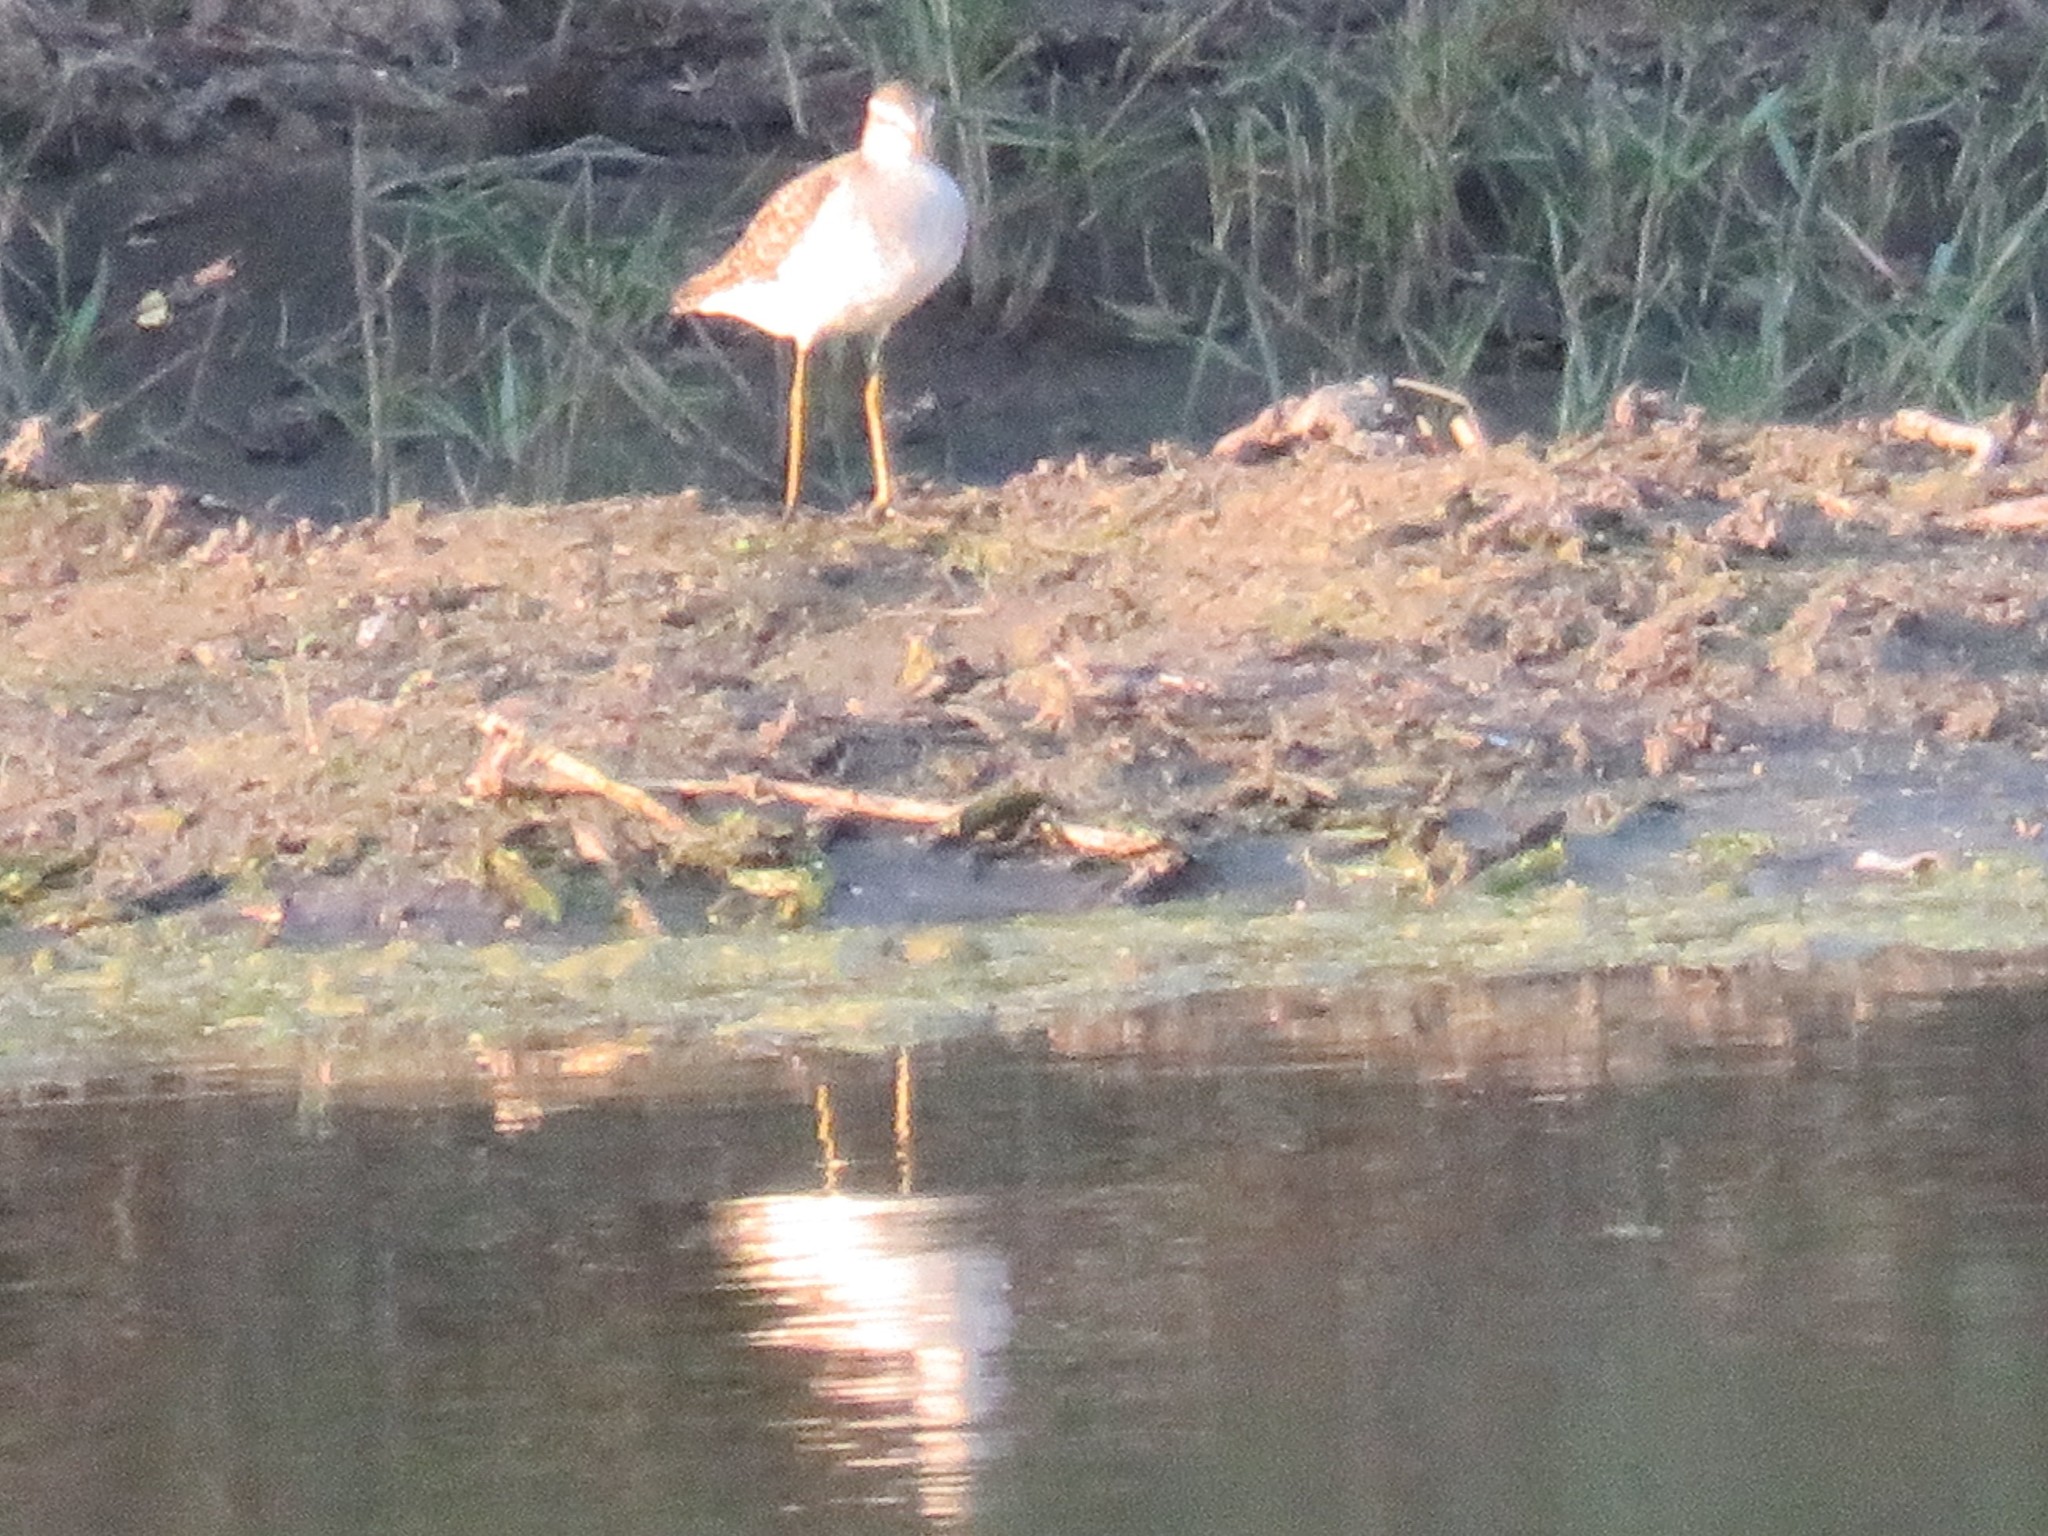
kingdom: Animalia
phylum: Chordata
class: Aves
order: Charadriiformes
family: Scolopacidae
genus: Tringa
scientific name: Tringa glareola
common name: Wood sandpiper
